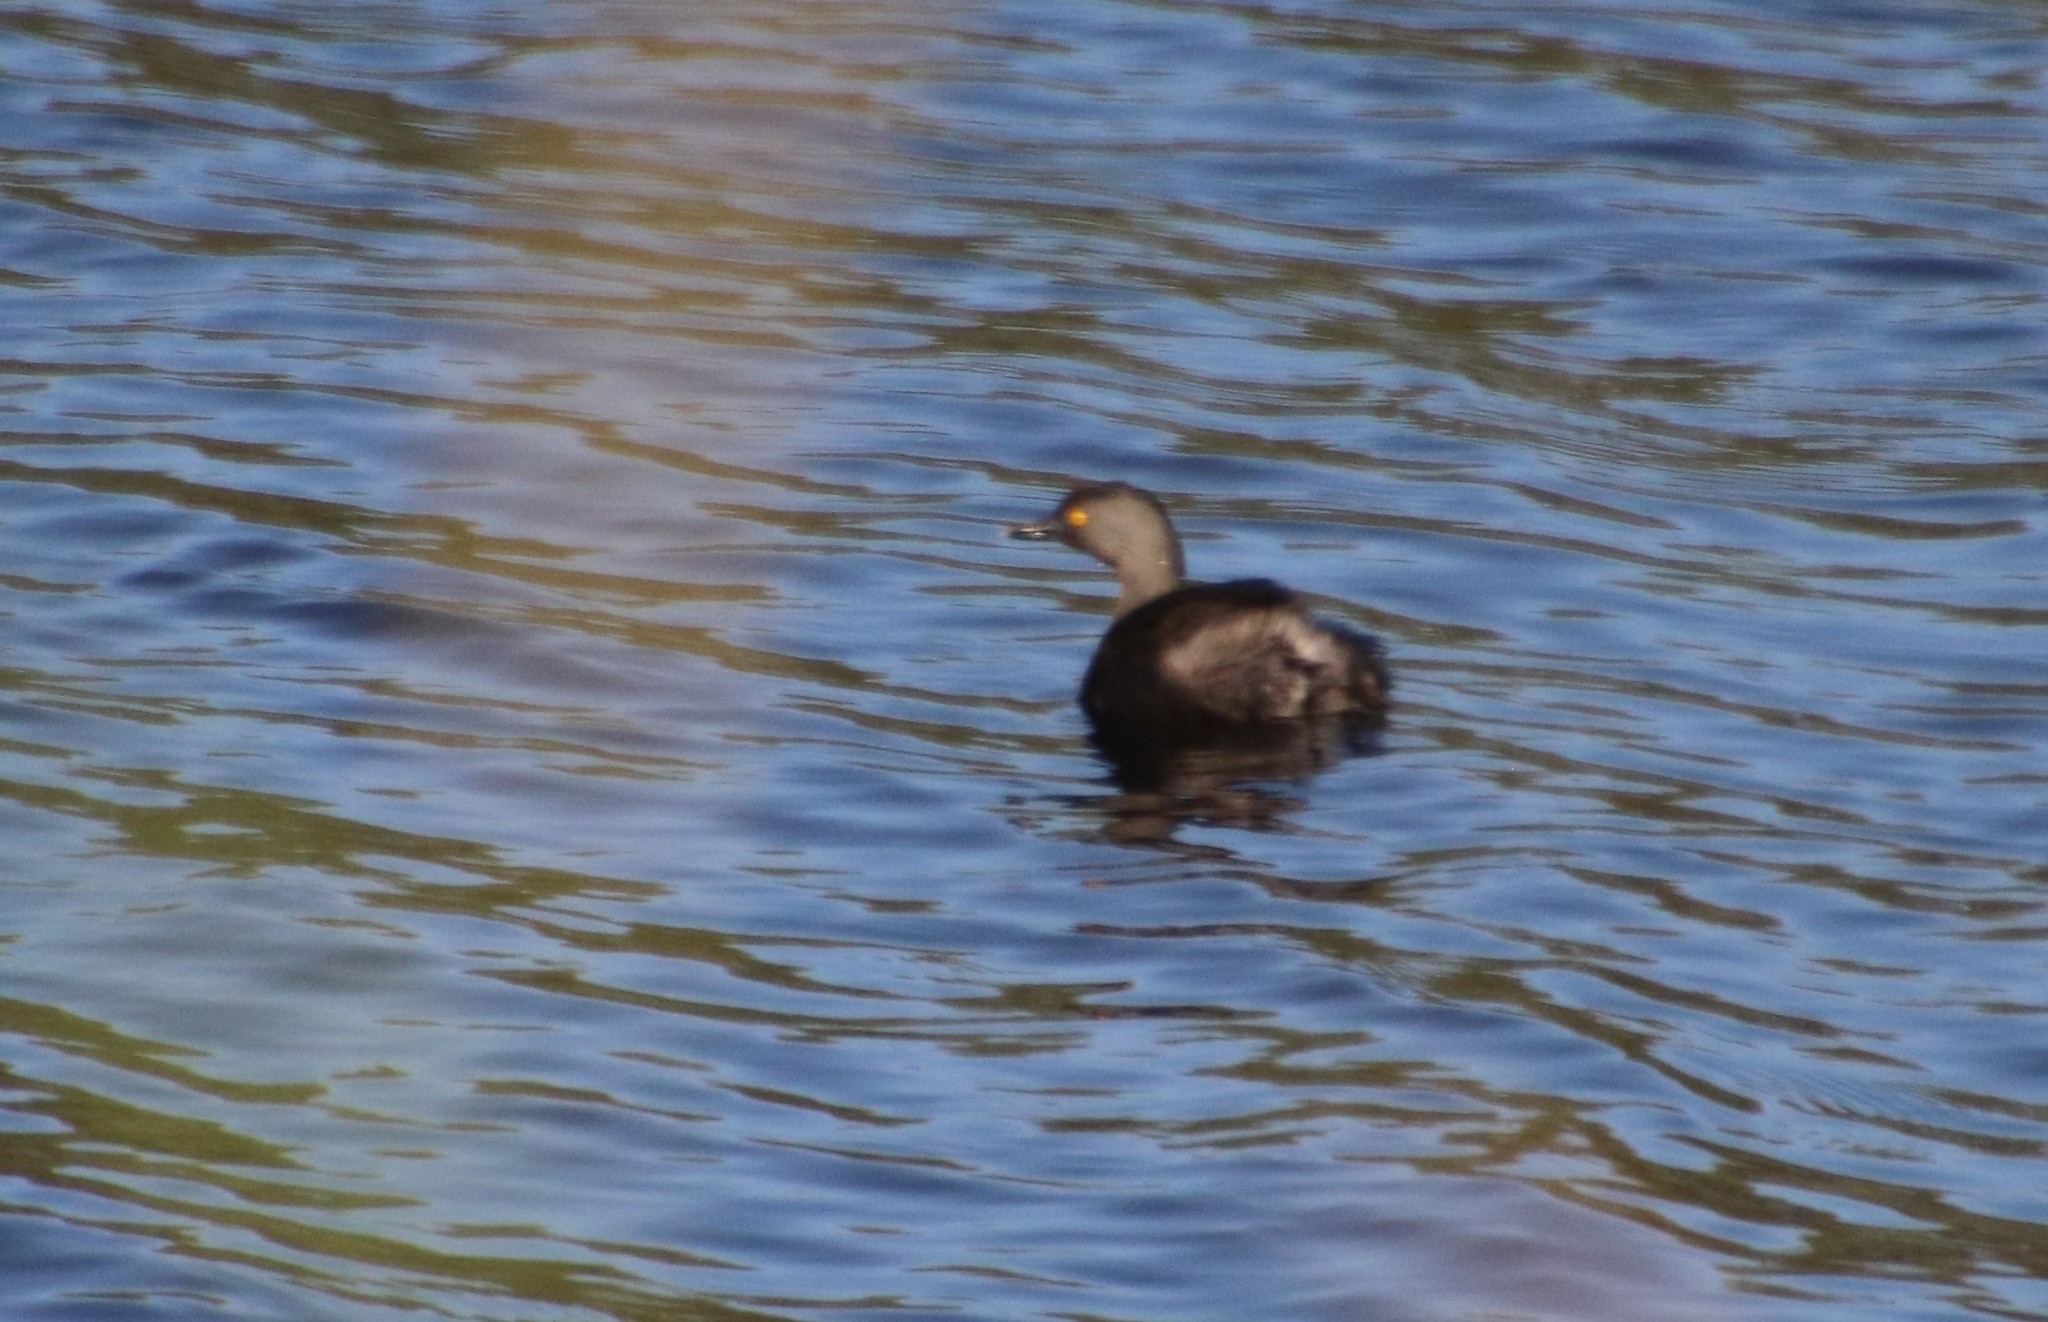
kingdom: Animalia
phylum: Chordata
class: Aves
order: Podicipediformes
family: Podicipedidae
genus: Tachybaptus
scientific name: Tachybaptus dominicus
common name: Least grebe
